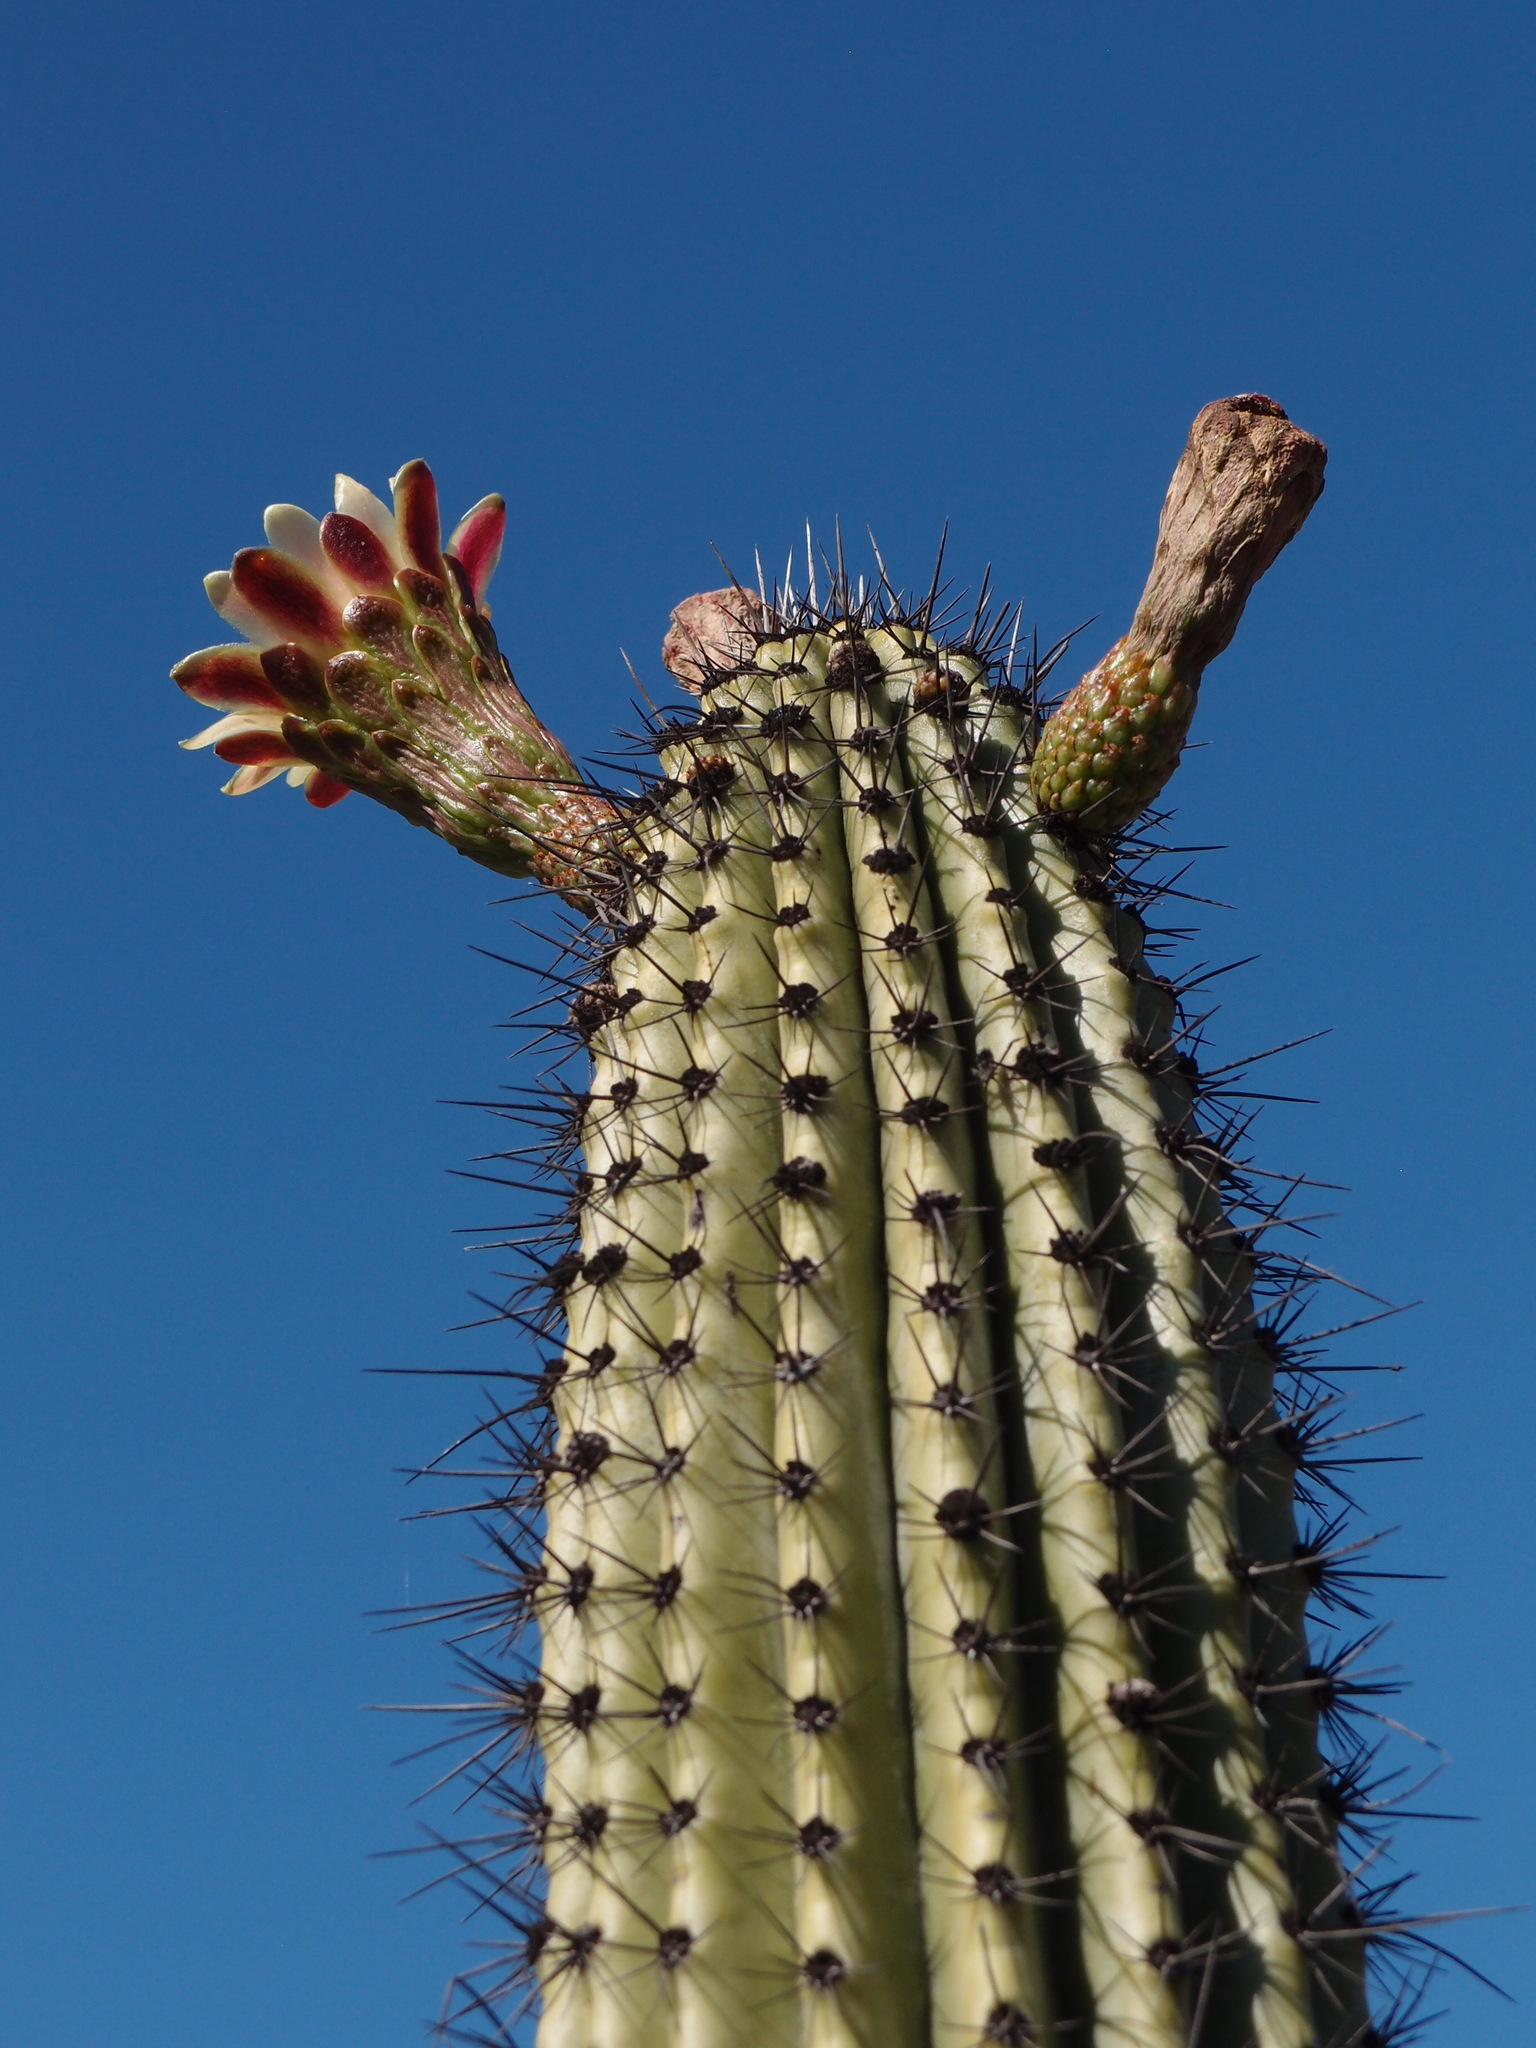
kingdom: Plantae
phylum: Tracheophyta
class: Magnoliopsida
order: Caryophyllales
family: Cactaceae
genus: Stenocereus
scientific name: Stenocereus thurberi
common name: Organ pipe cactus
